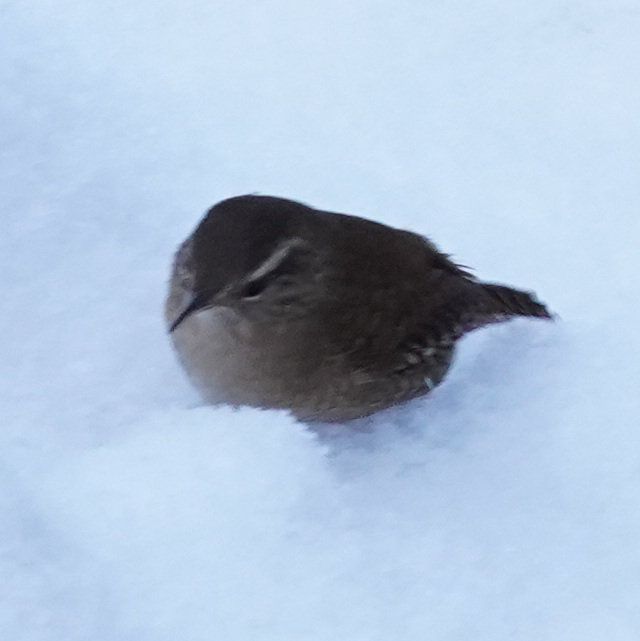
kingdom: Animalia
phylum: Chordata
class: Aves
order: Passeriformes
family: Troglodytidae
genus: Troglodytes
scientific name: Troglodytes troglodytes
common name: Eurasian wren
